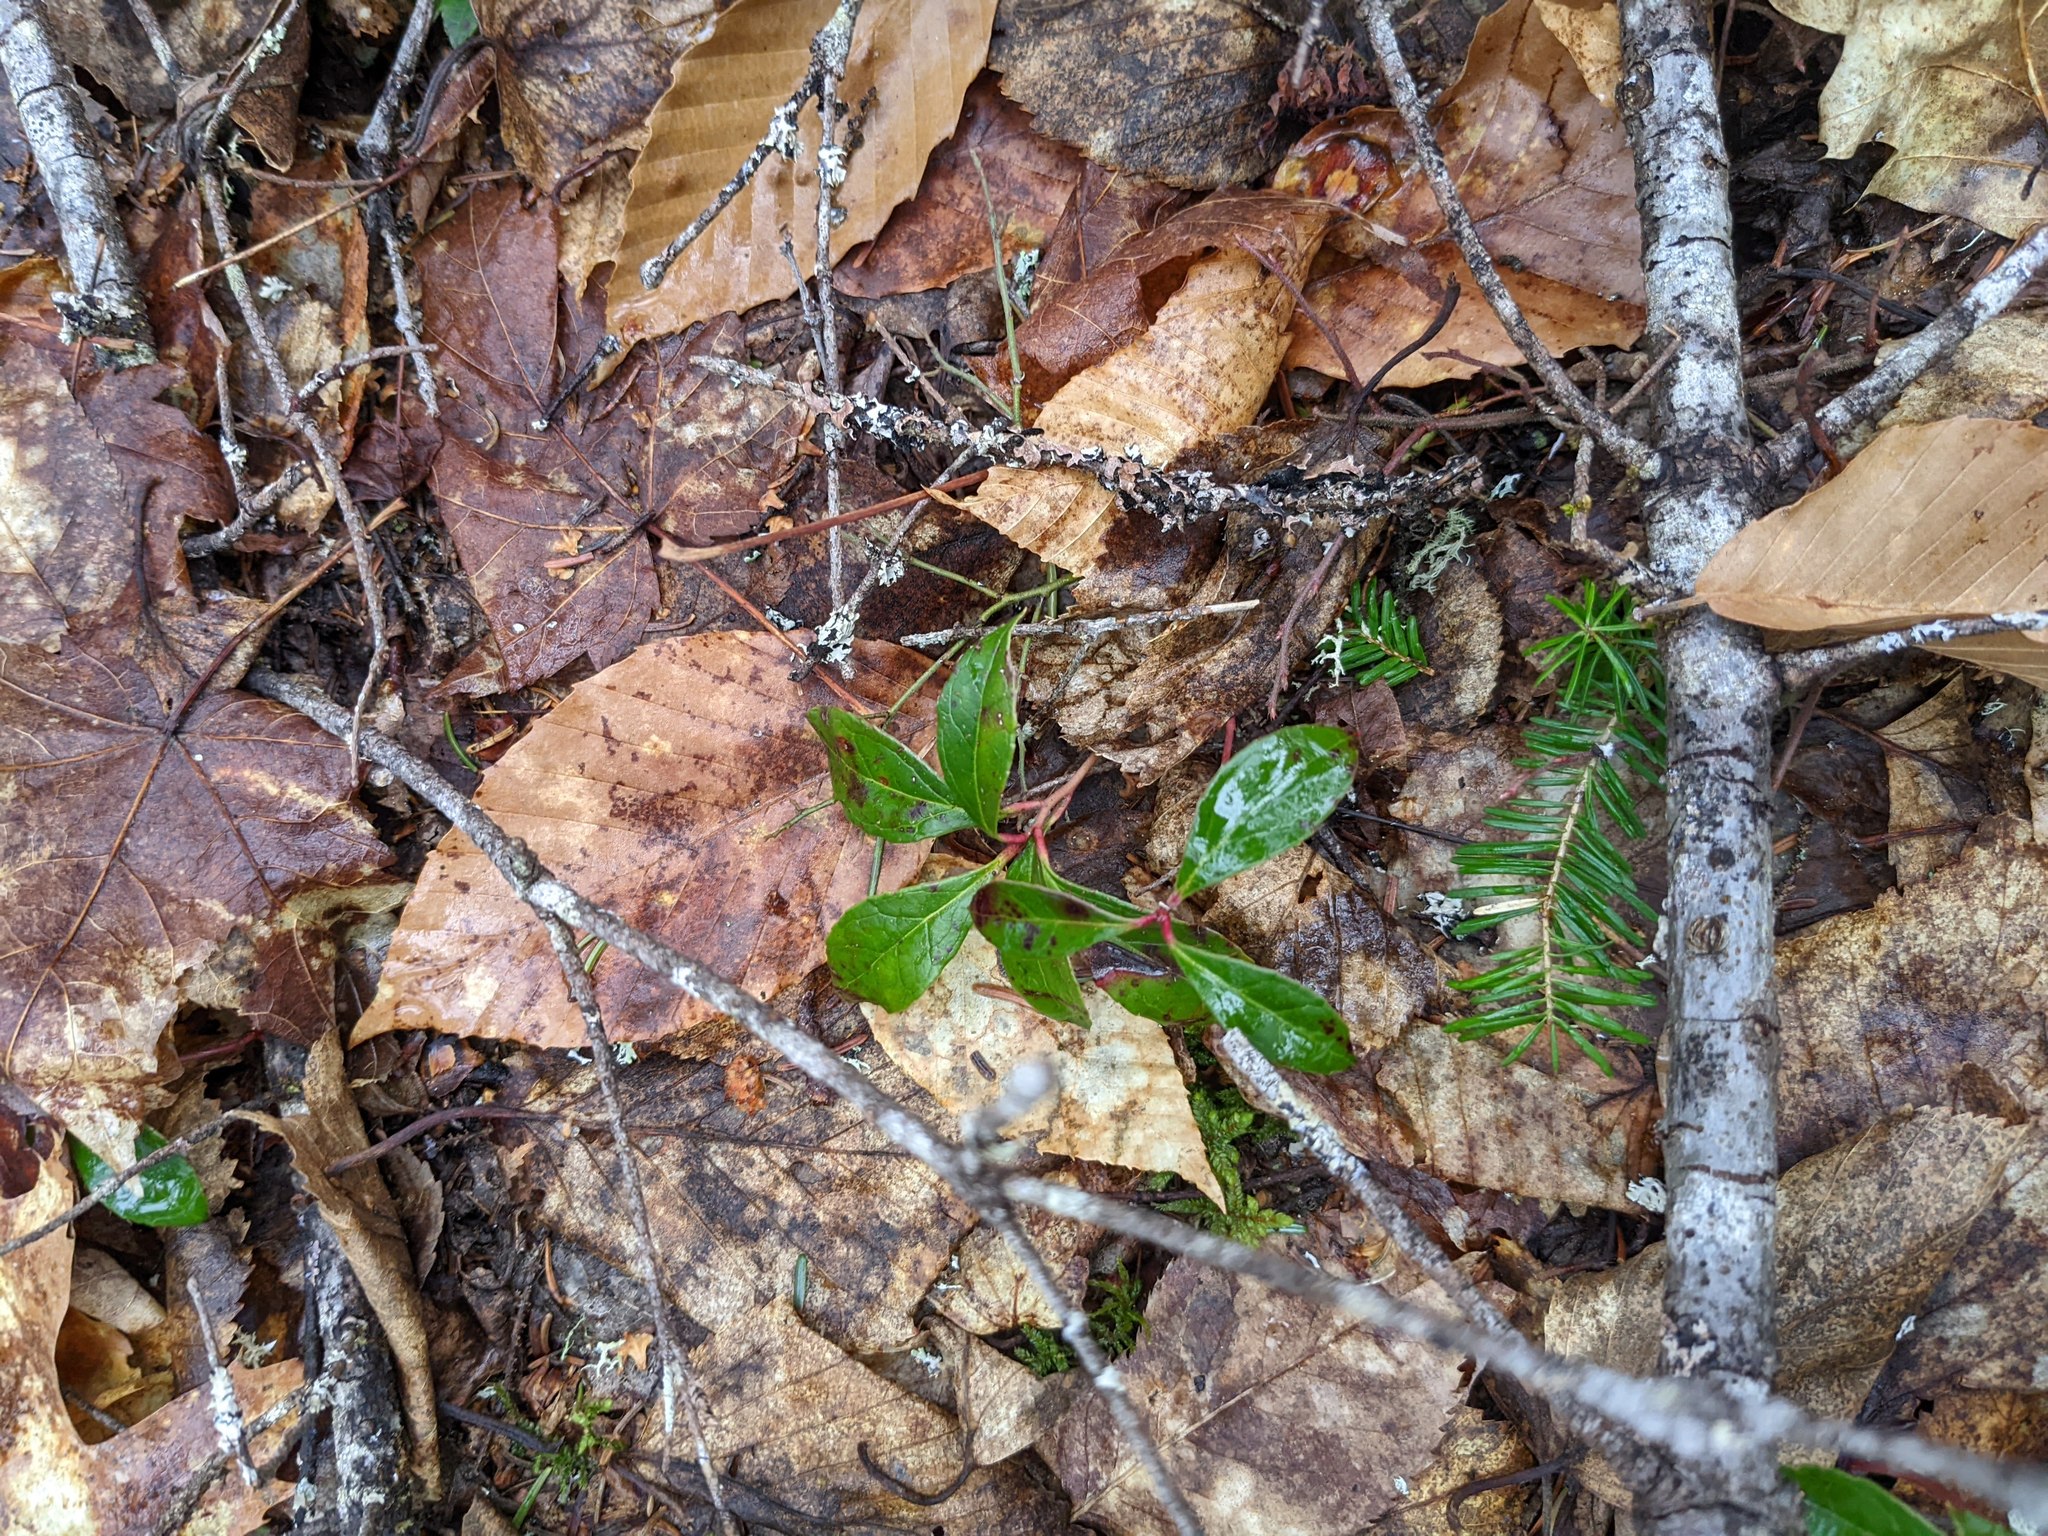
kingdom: Plantae
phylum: Tracheophyta
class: Magnoliopsida
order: Ericales
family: Ericaceae
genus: Gaultheria
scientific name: Gaultheria procumbens
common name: Checkerberry
